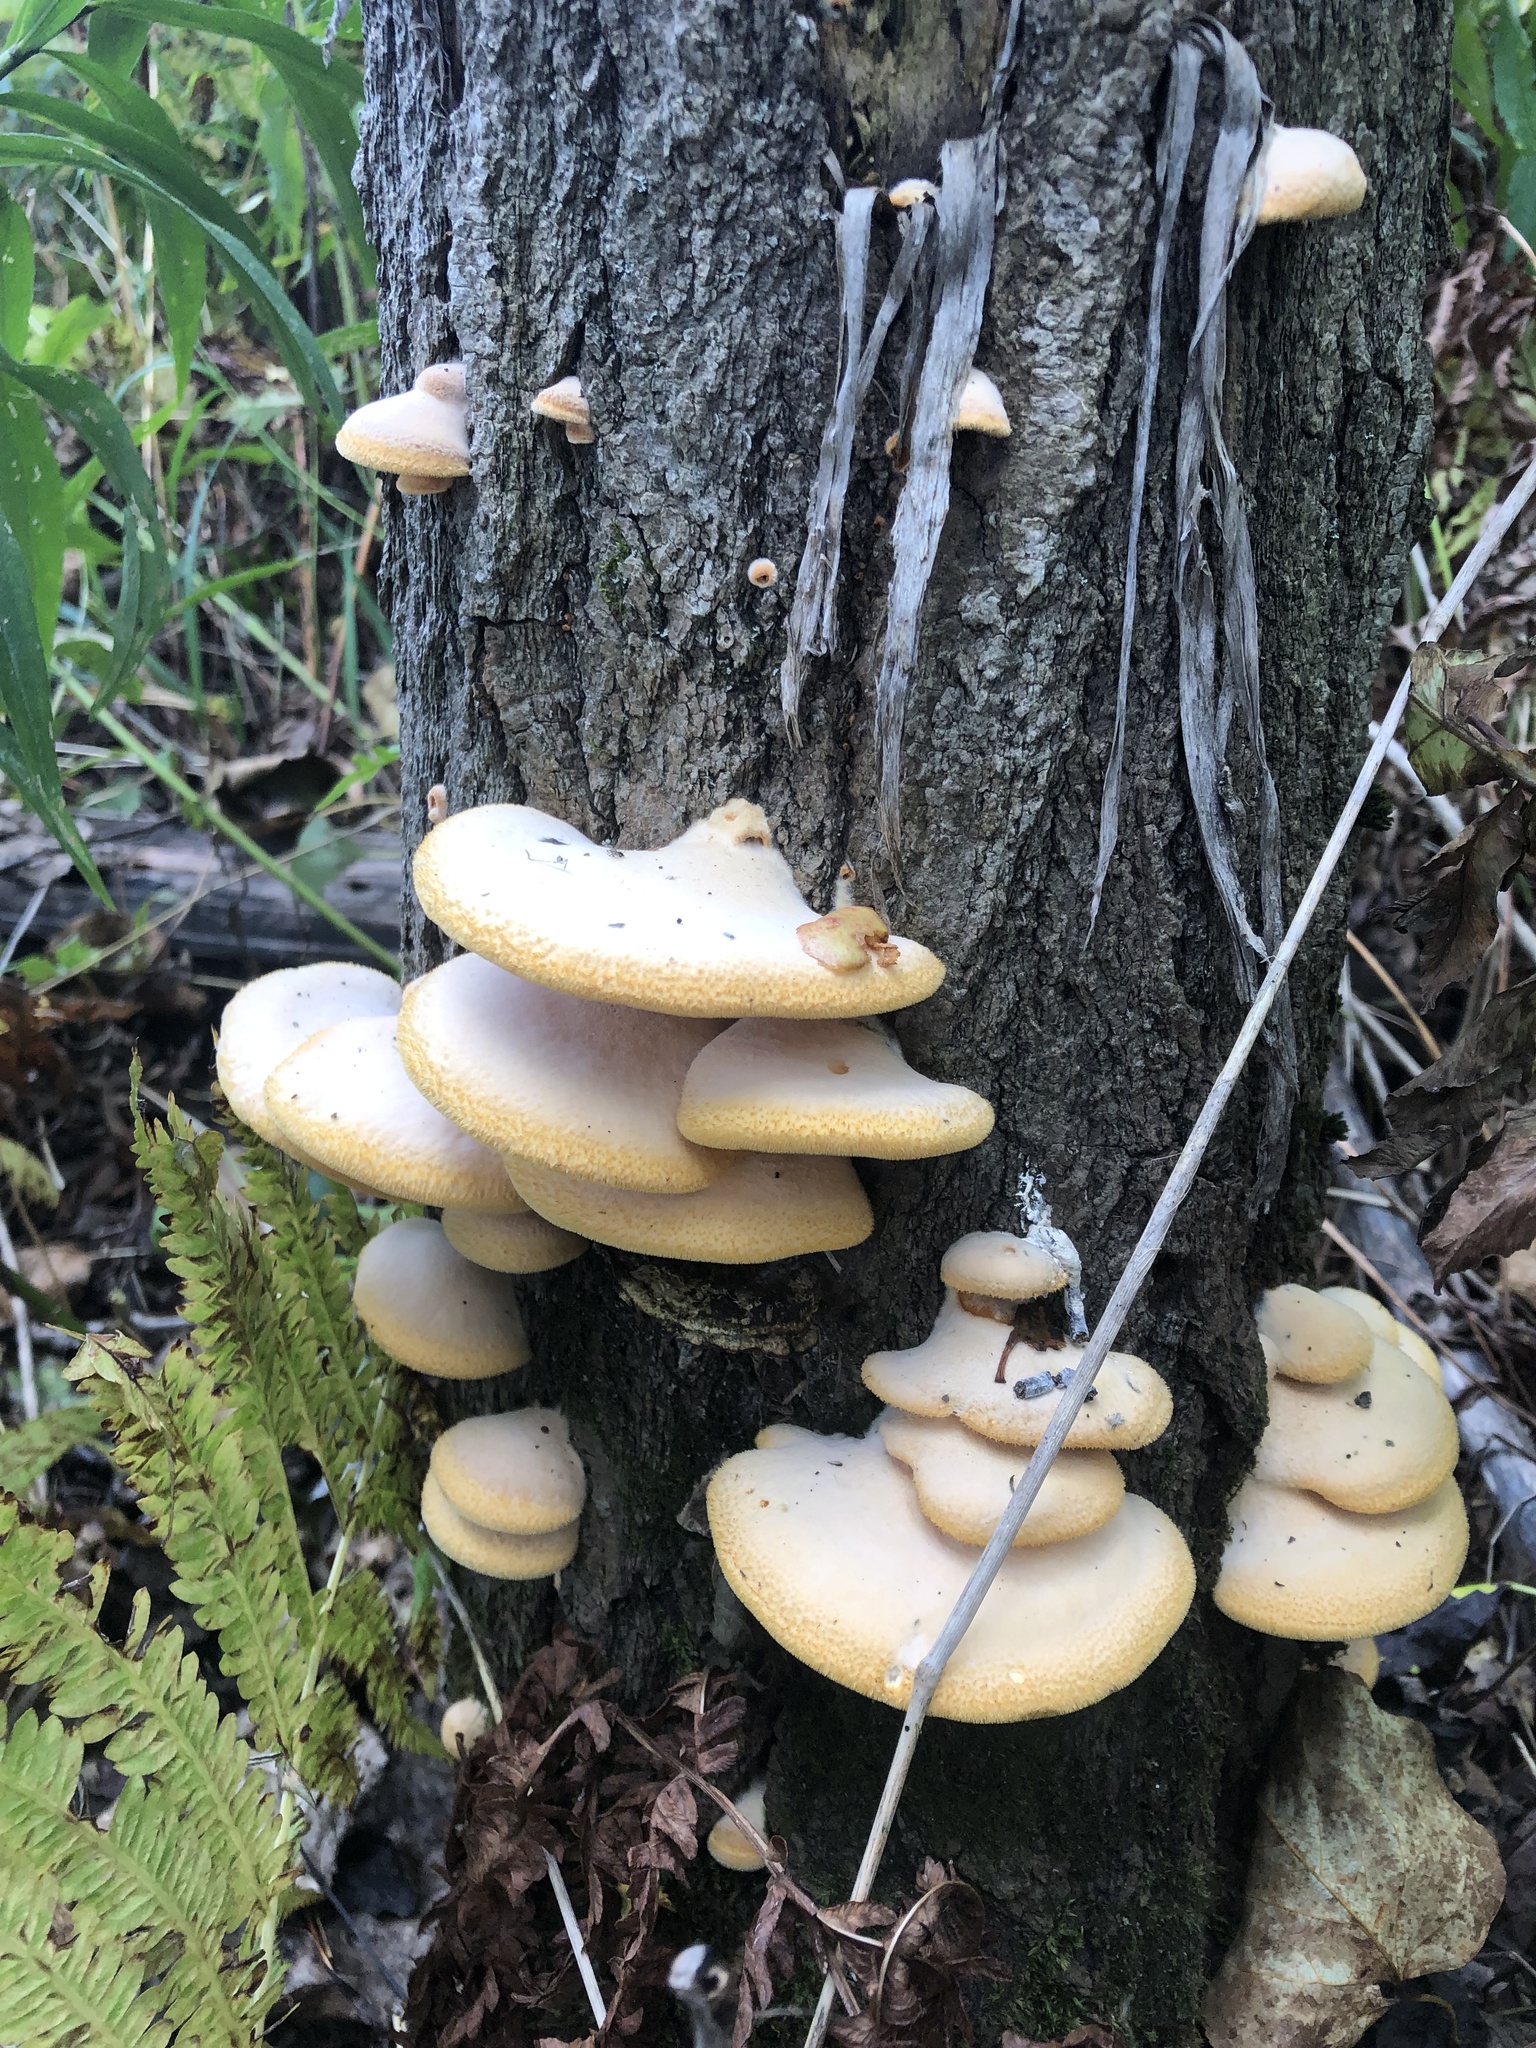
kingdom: Fungi
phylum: Basidiomycota
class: Agaricomycetes
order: Agaricales
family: Phyllotopsidaceae
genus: Phyllotopsis
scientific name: Phyllotopsis nidulans
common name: Orange mock oyster
